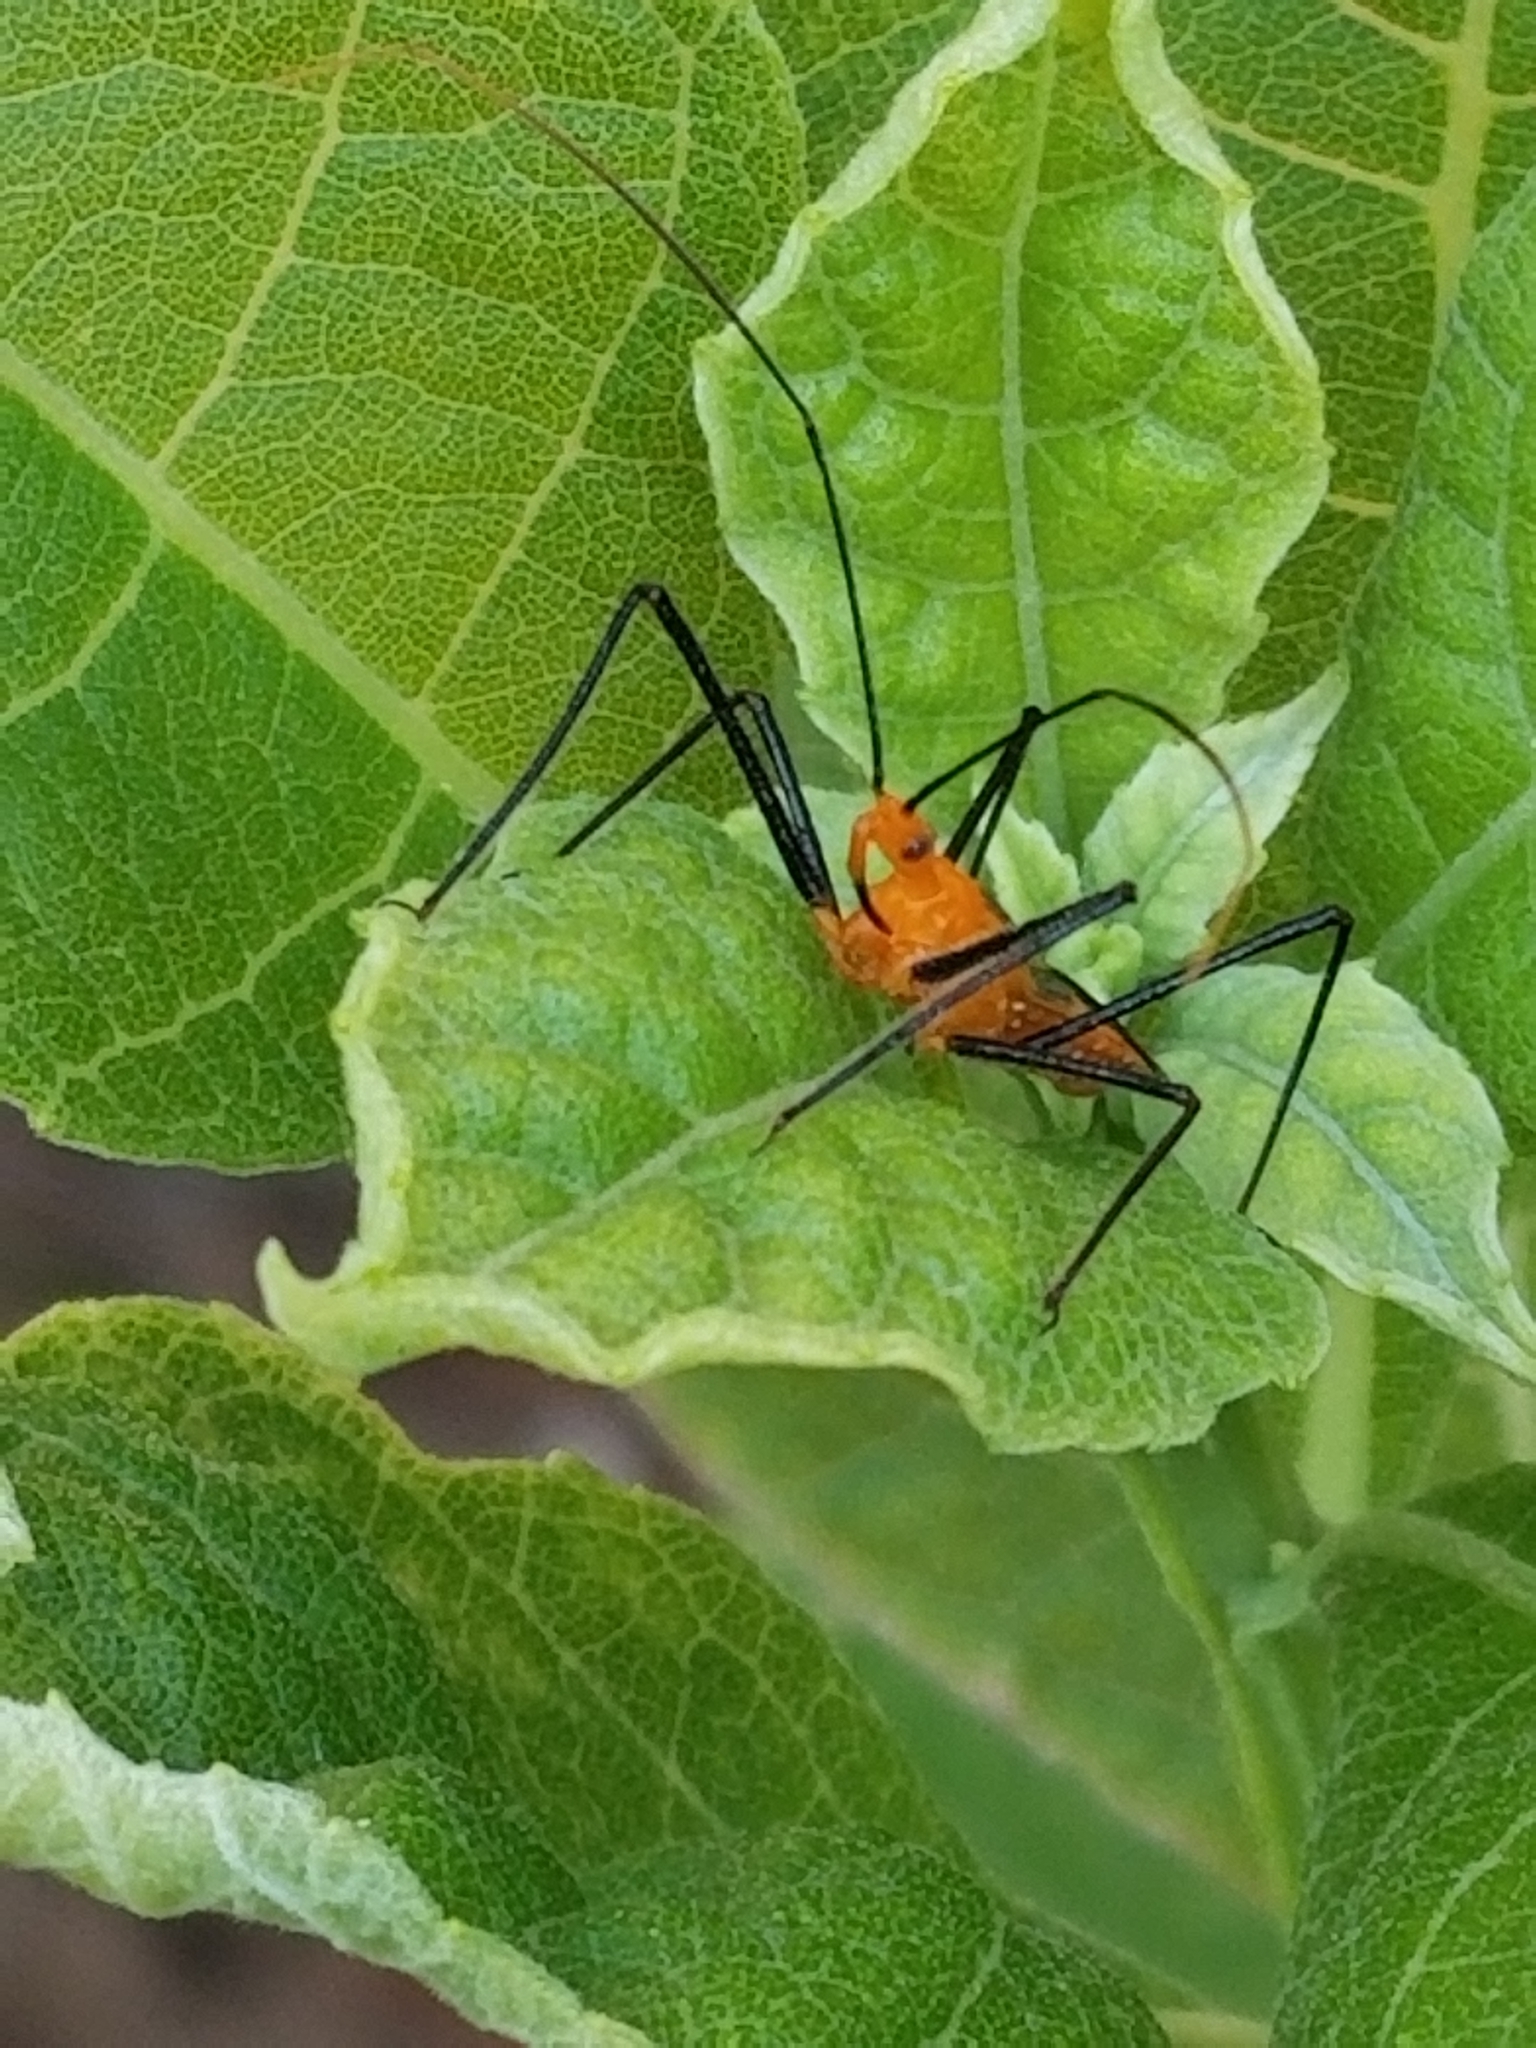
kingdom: Animalia
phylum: Arthropoda
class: Insecta
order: Hemiptera
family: Reduviidae
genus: Zelus
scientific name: Zelus longipes
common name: Milkweed assassin bug
